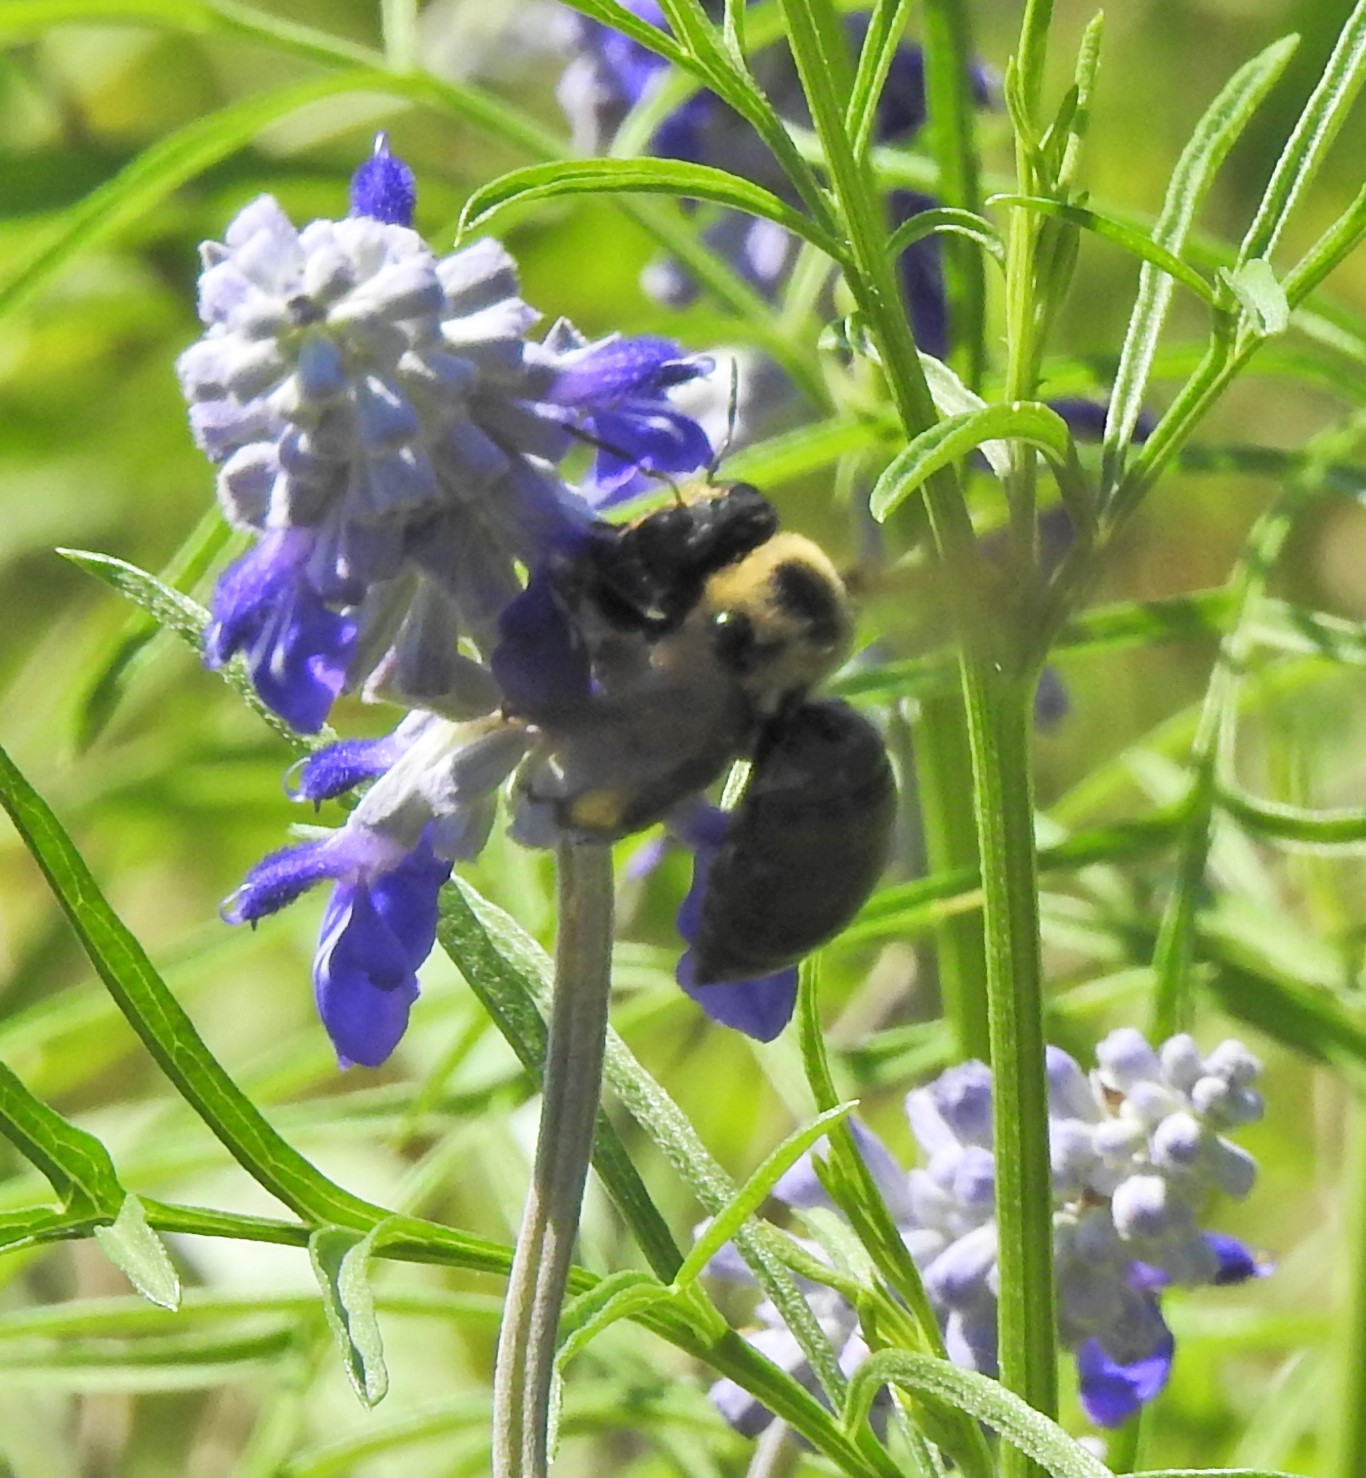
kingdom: Animalia
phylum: Arthropoda
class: Insecta
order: Hymenoptera
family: Apidae
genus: Xylocopa
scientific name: Xylocopa virginica
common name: Carpenter bee
